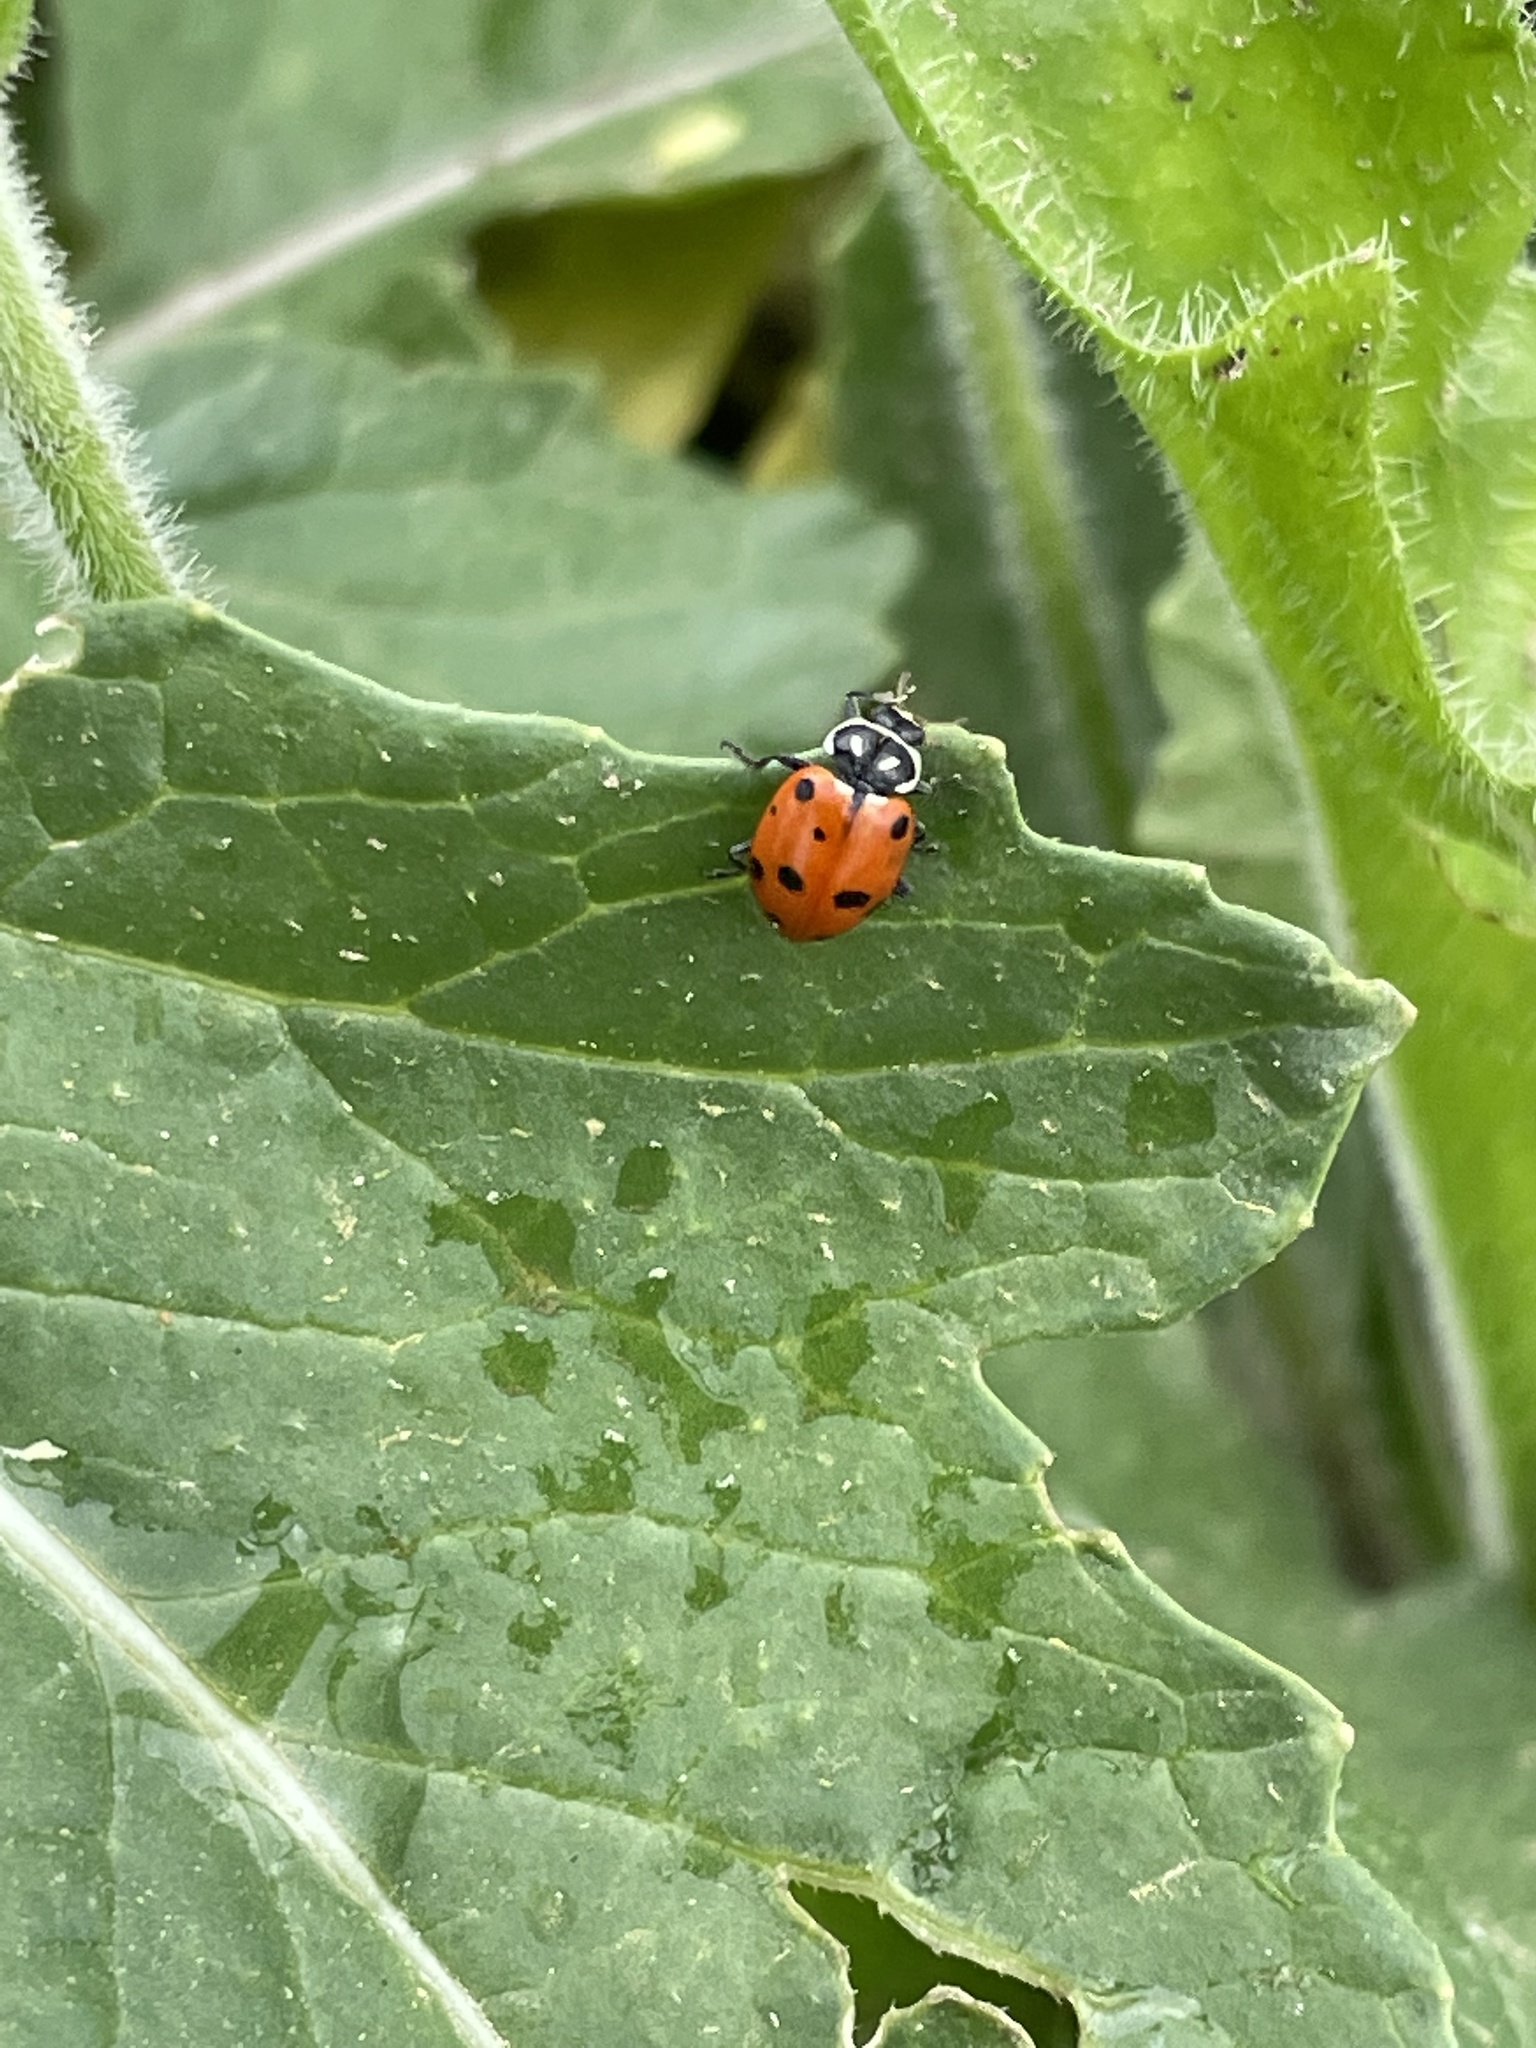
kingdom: Animalia
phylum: Arthropoda
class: Insecta
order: Coleoptera
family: Coccinellidae
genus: Hippodamia
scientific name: Hippodamia convergens
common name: Convergent lady beetle
